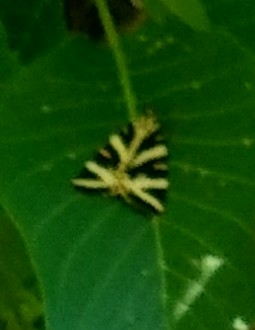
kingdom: Animalia
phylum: Arthropoda
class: Insecta
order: Lepidoptera
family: Erebidae
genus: Euplagia
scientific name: Euplagia quadripunctaria
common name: Jersey tiger
